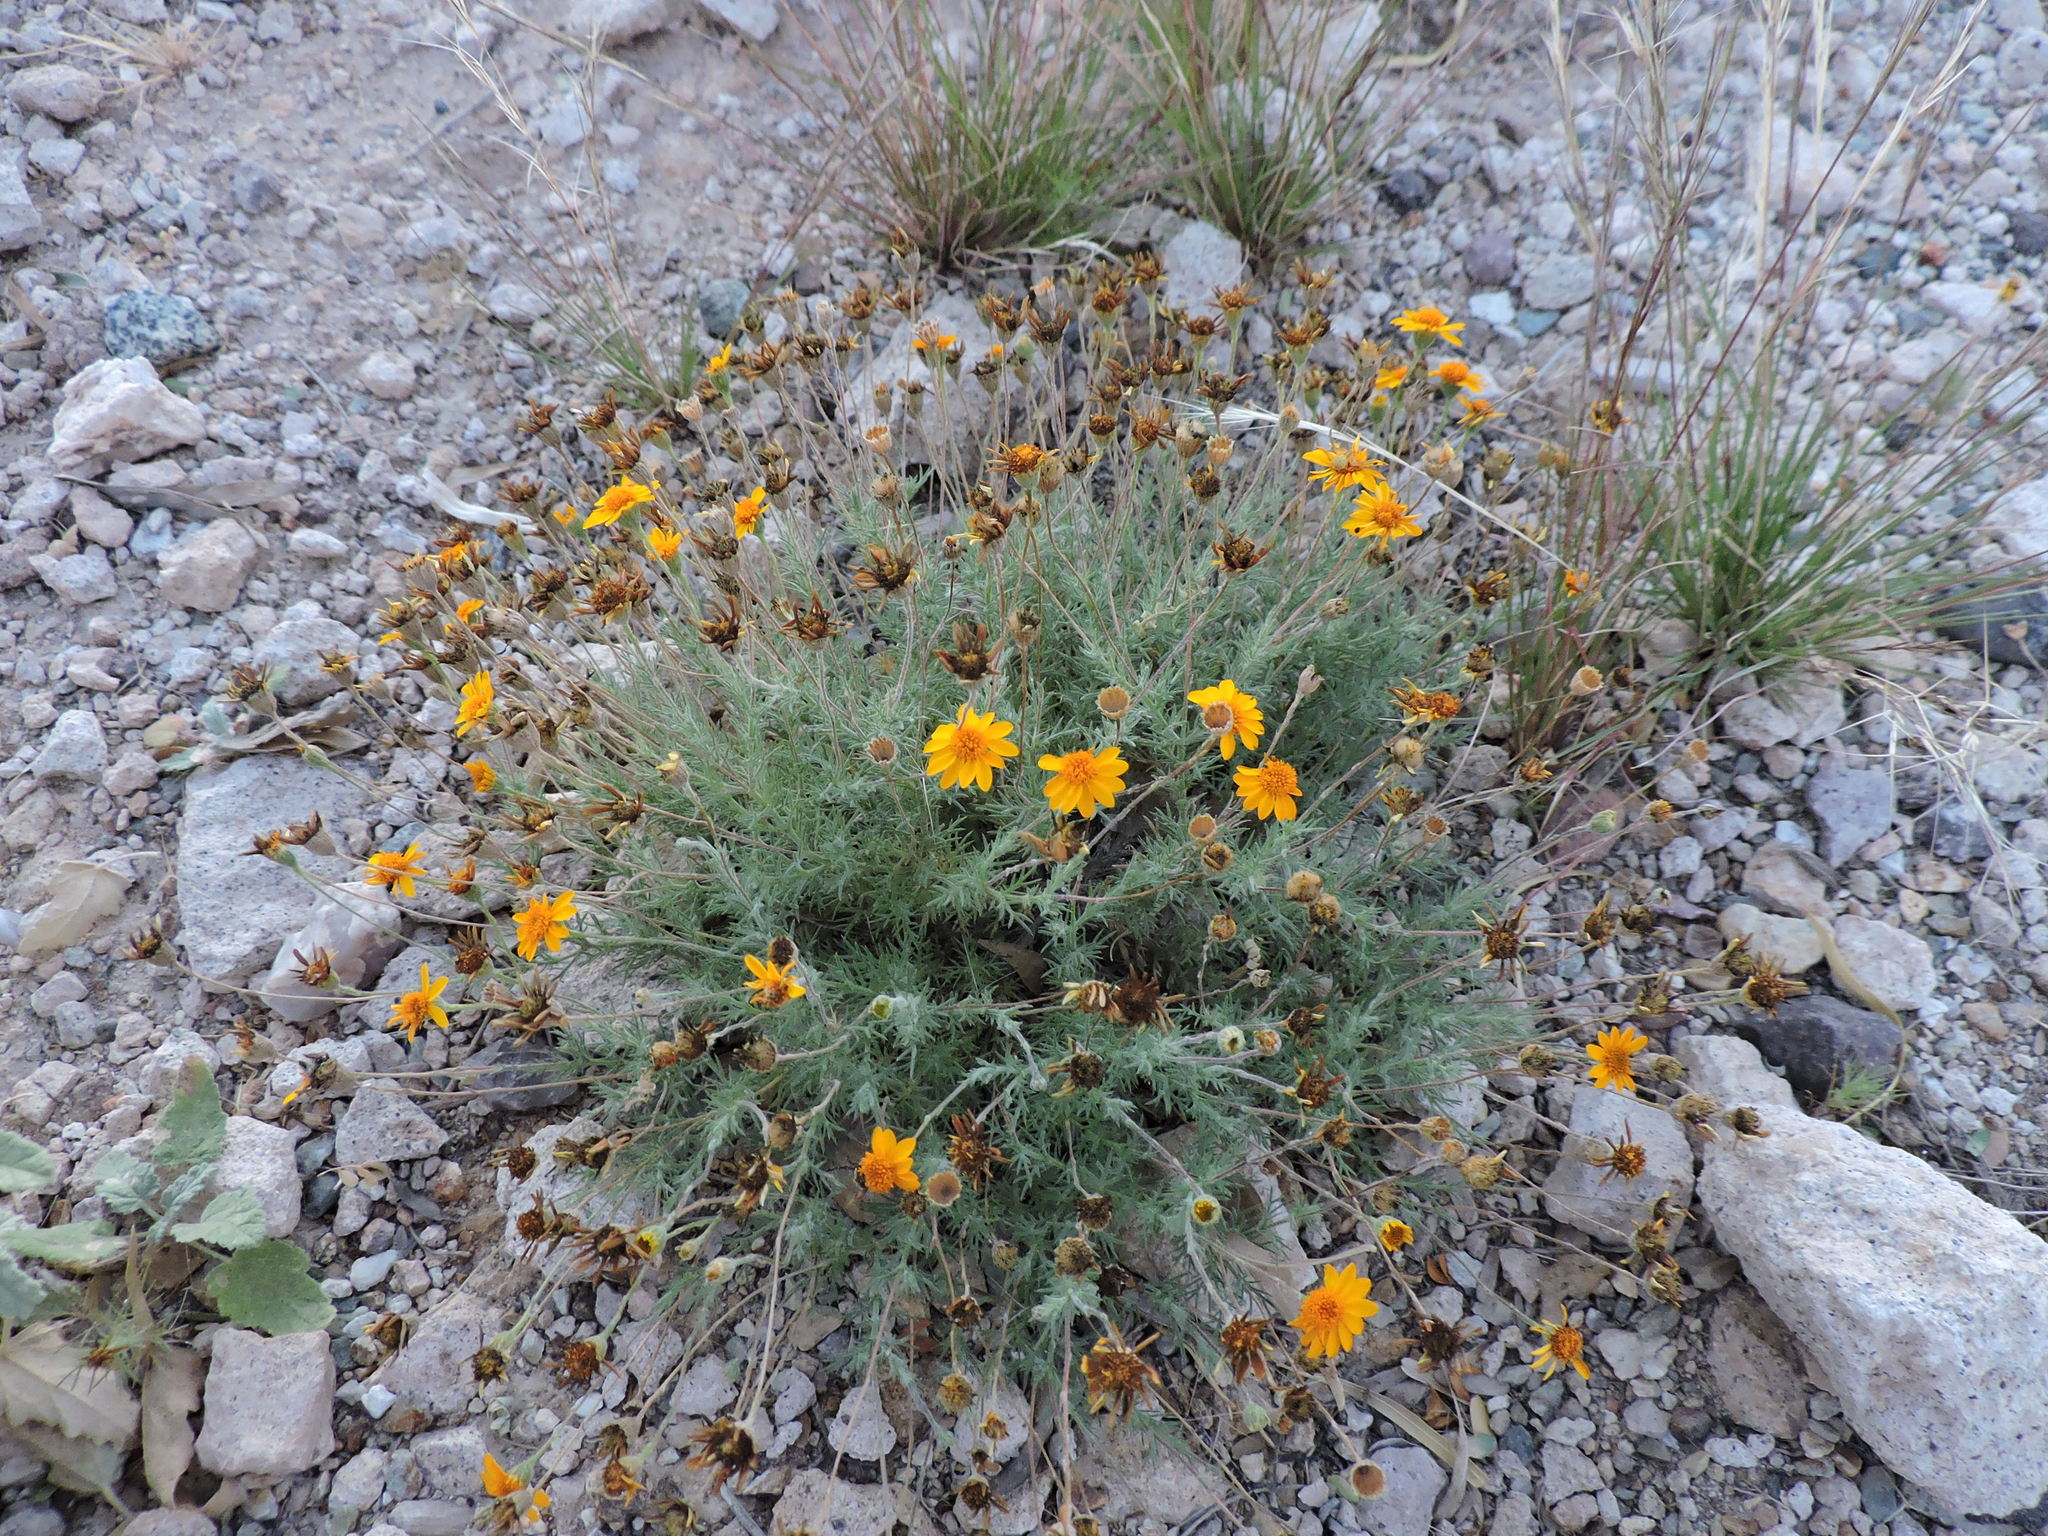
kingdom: Plantae
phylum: Tracheophyta
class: Magnoliopsida
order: Asterales
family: Asteraceae
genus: Thymophylla
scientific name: Thymophylla pentachaeta
